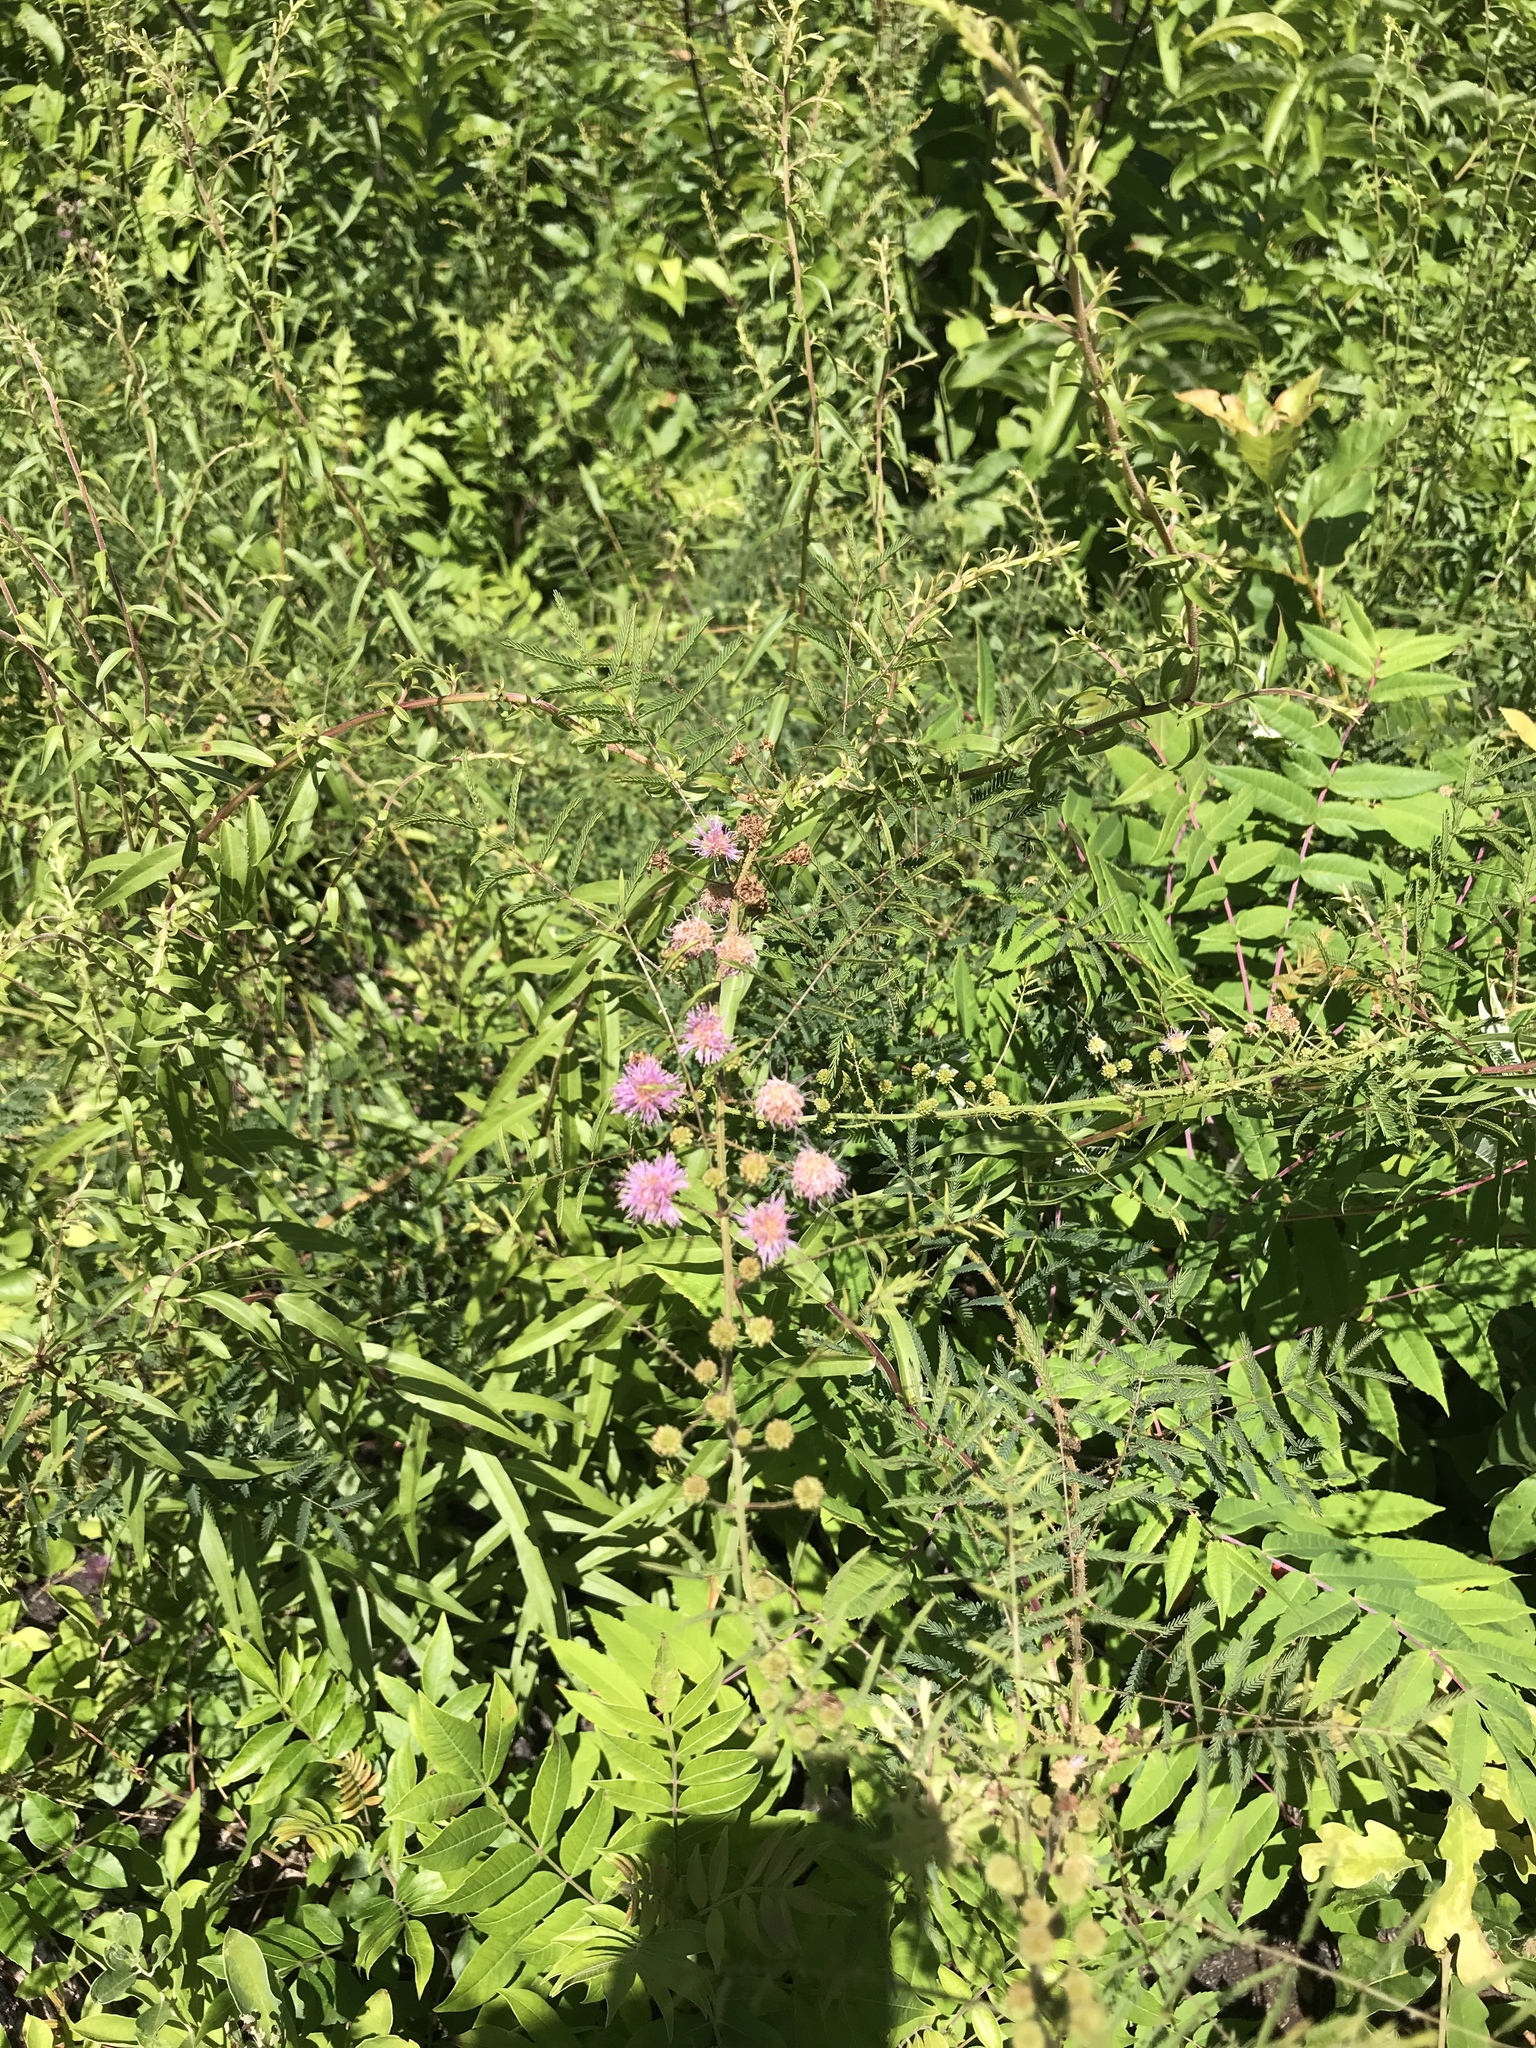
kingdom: Plantae
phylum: Tracheophyta
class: Magnoliopsida
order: Fabales
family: Fabaceae
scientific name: Fabaceae
